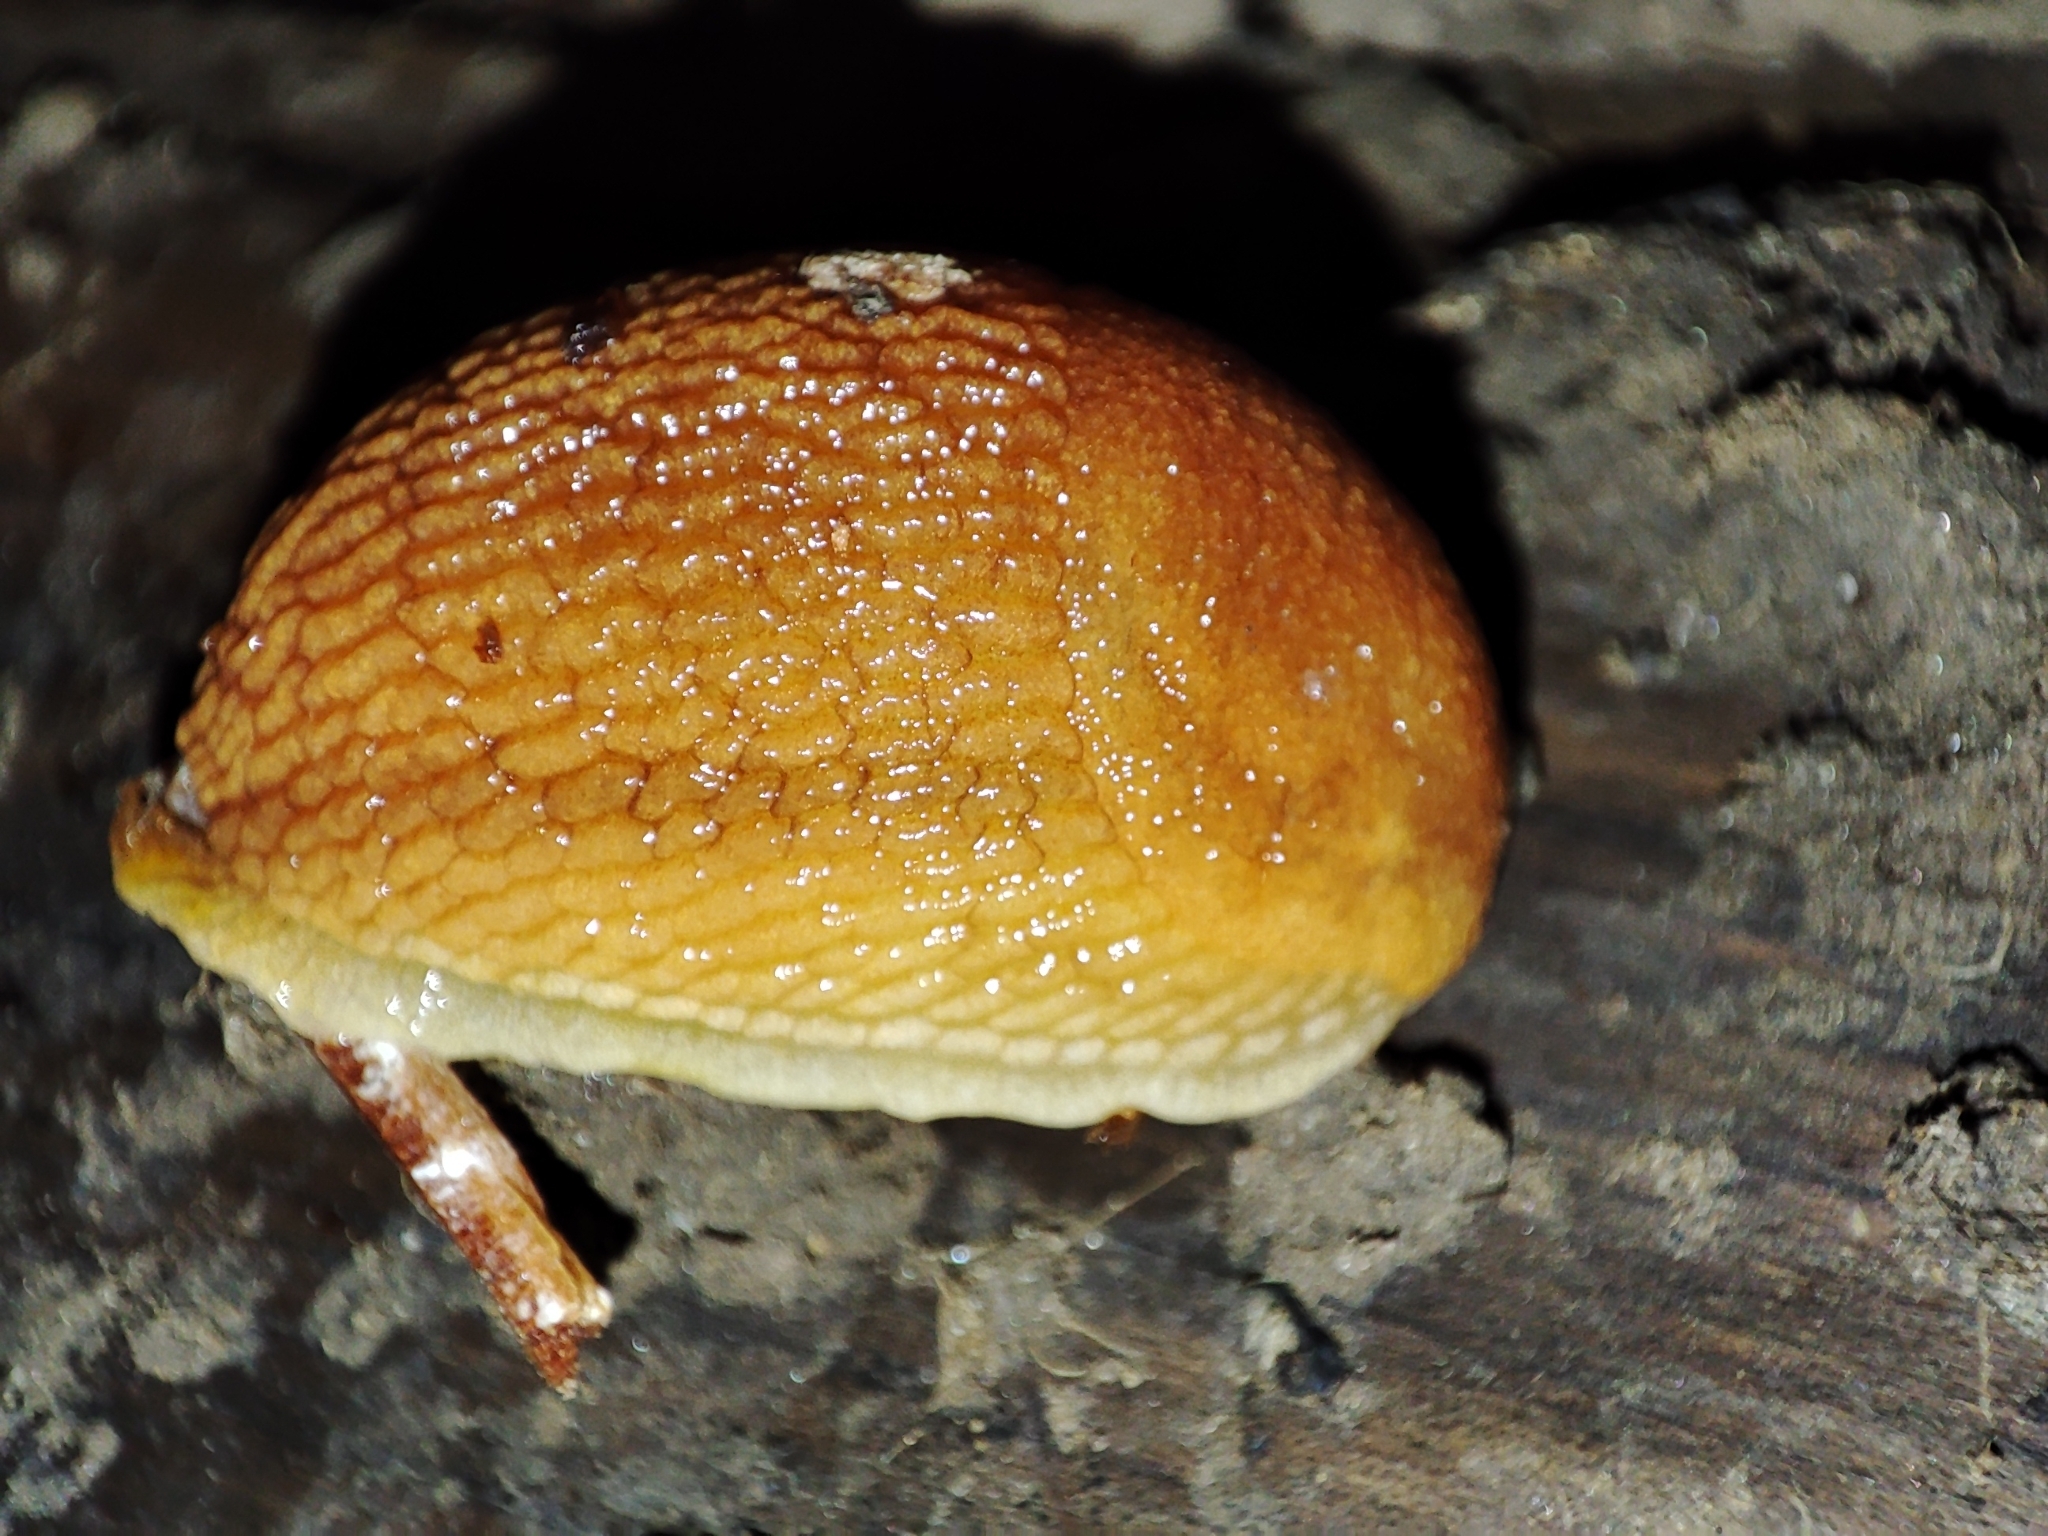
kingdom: Animalia
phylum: Mollusca
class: Gastropoda
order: Stylommatophora
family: Arionidae
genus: Arion
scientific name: Arion fuscus
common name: Northern dusky slug
